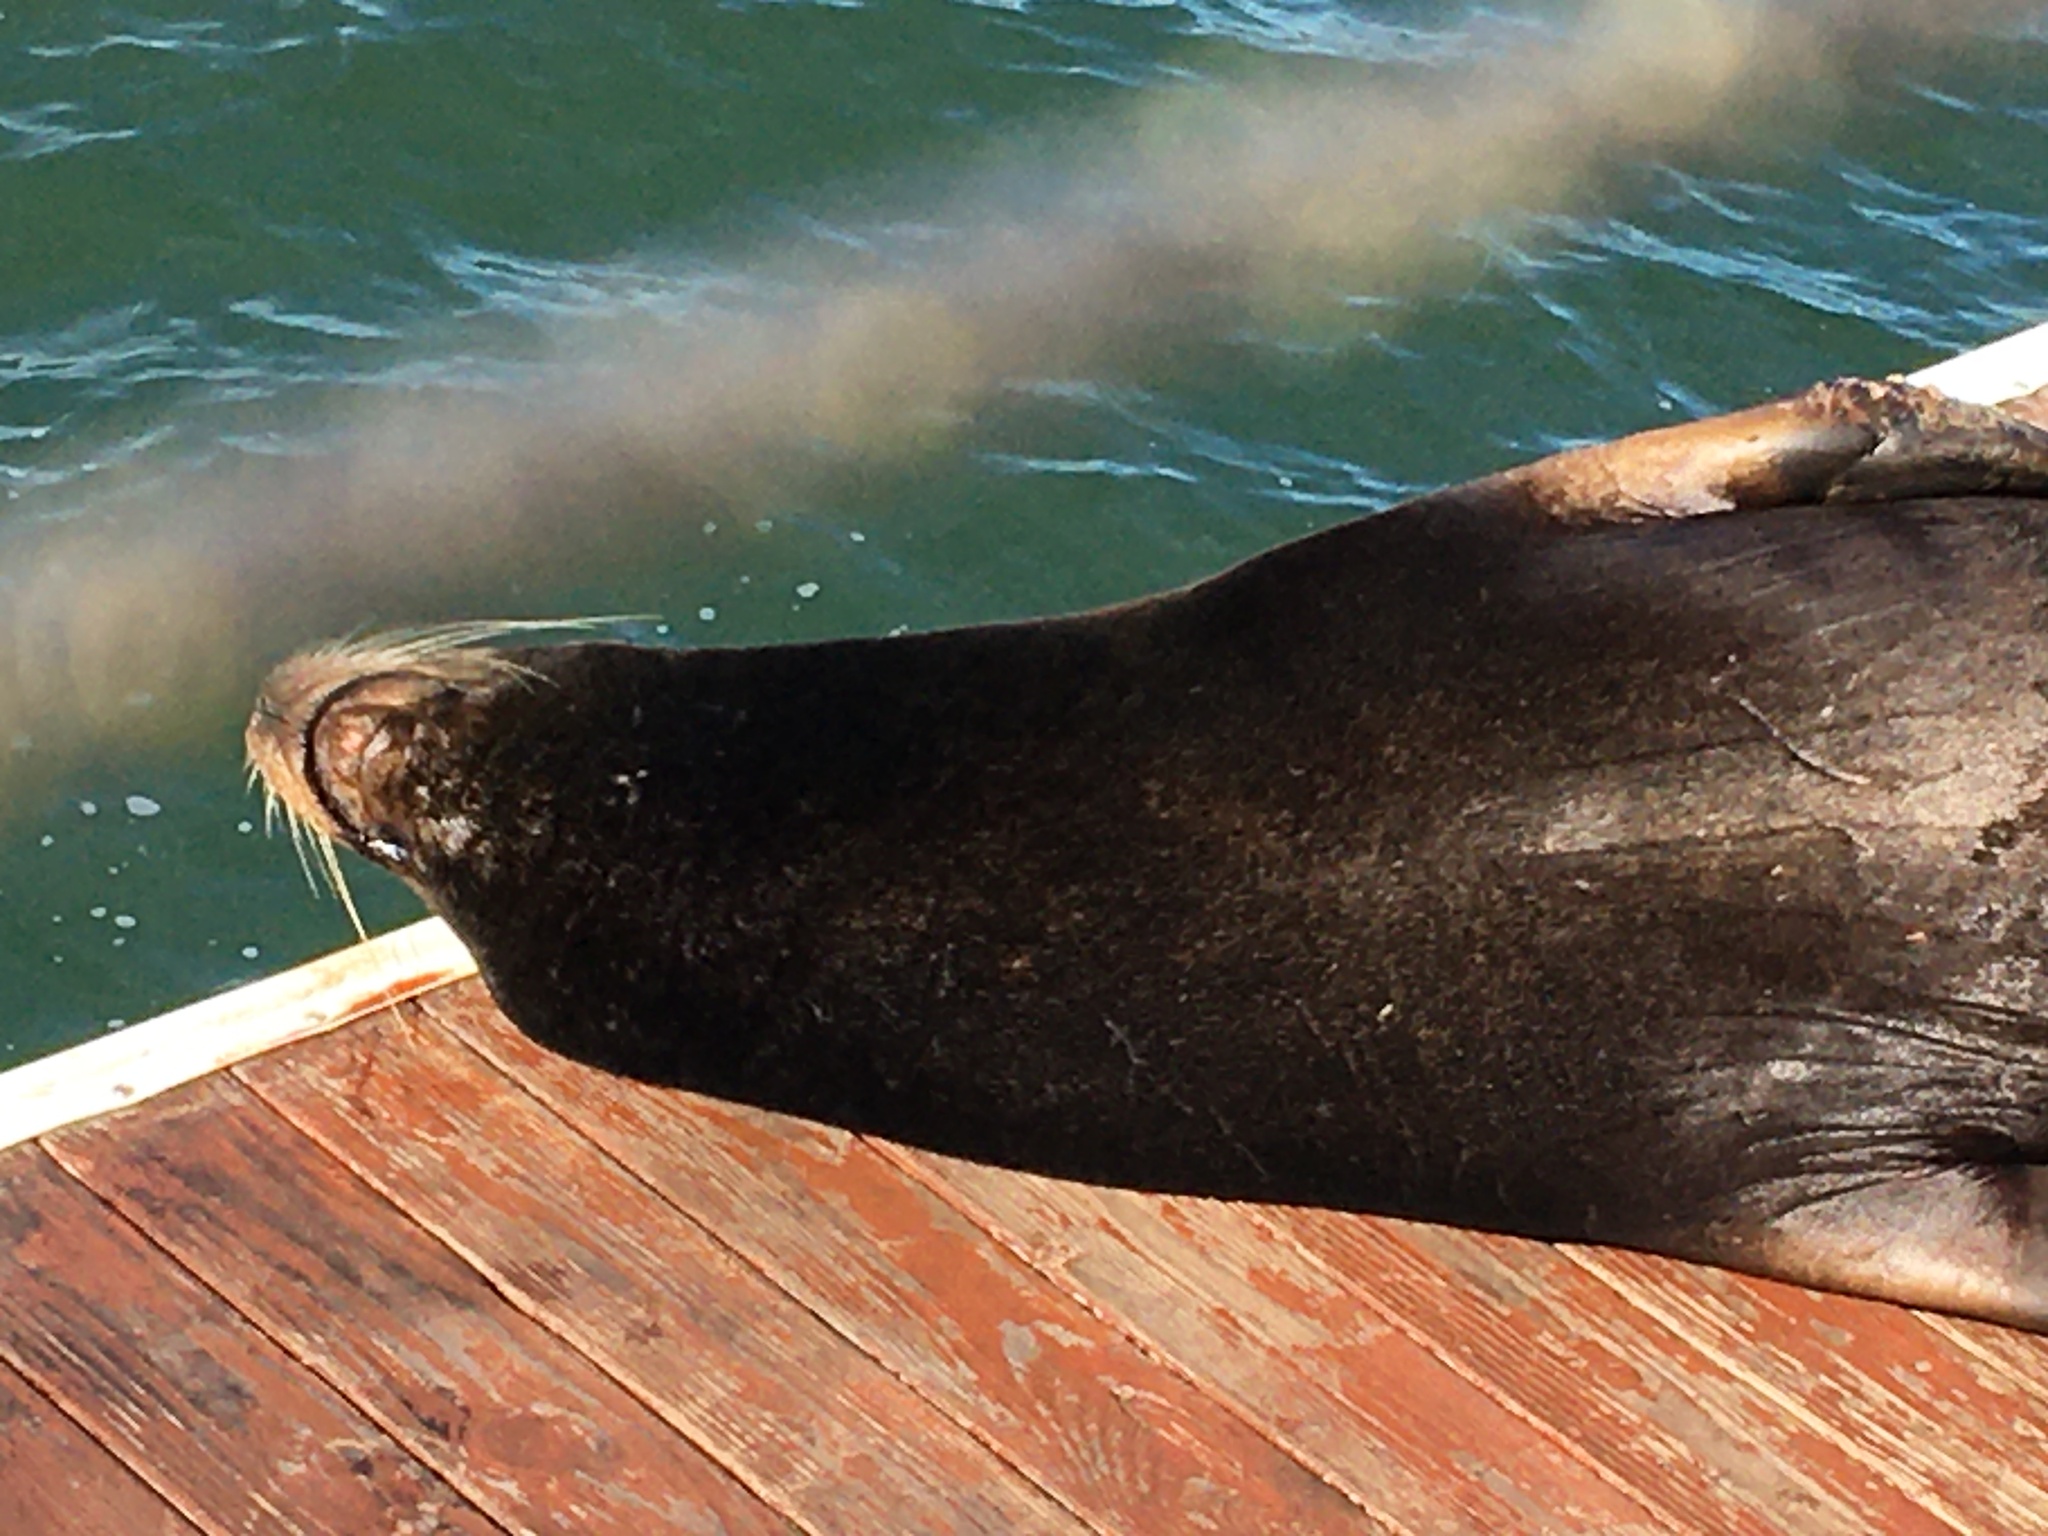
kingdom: Animalia
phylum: Chordata
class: Mammalia
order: Carnivora
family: Otariidae
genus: Zalophus
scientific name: Zalophus californianus
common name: California sea lion
